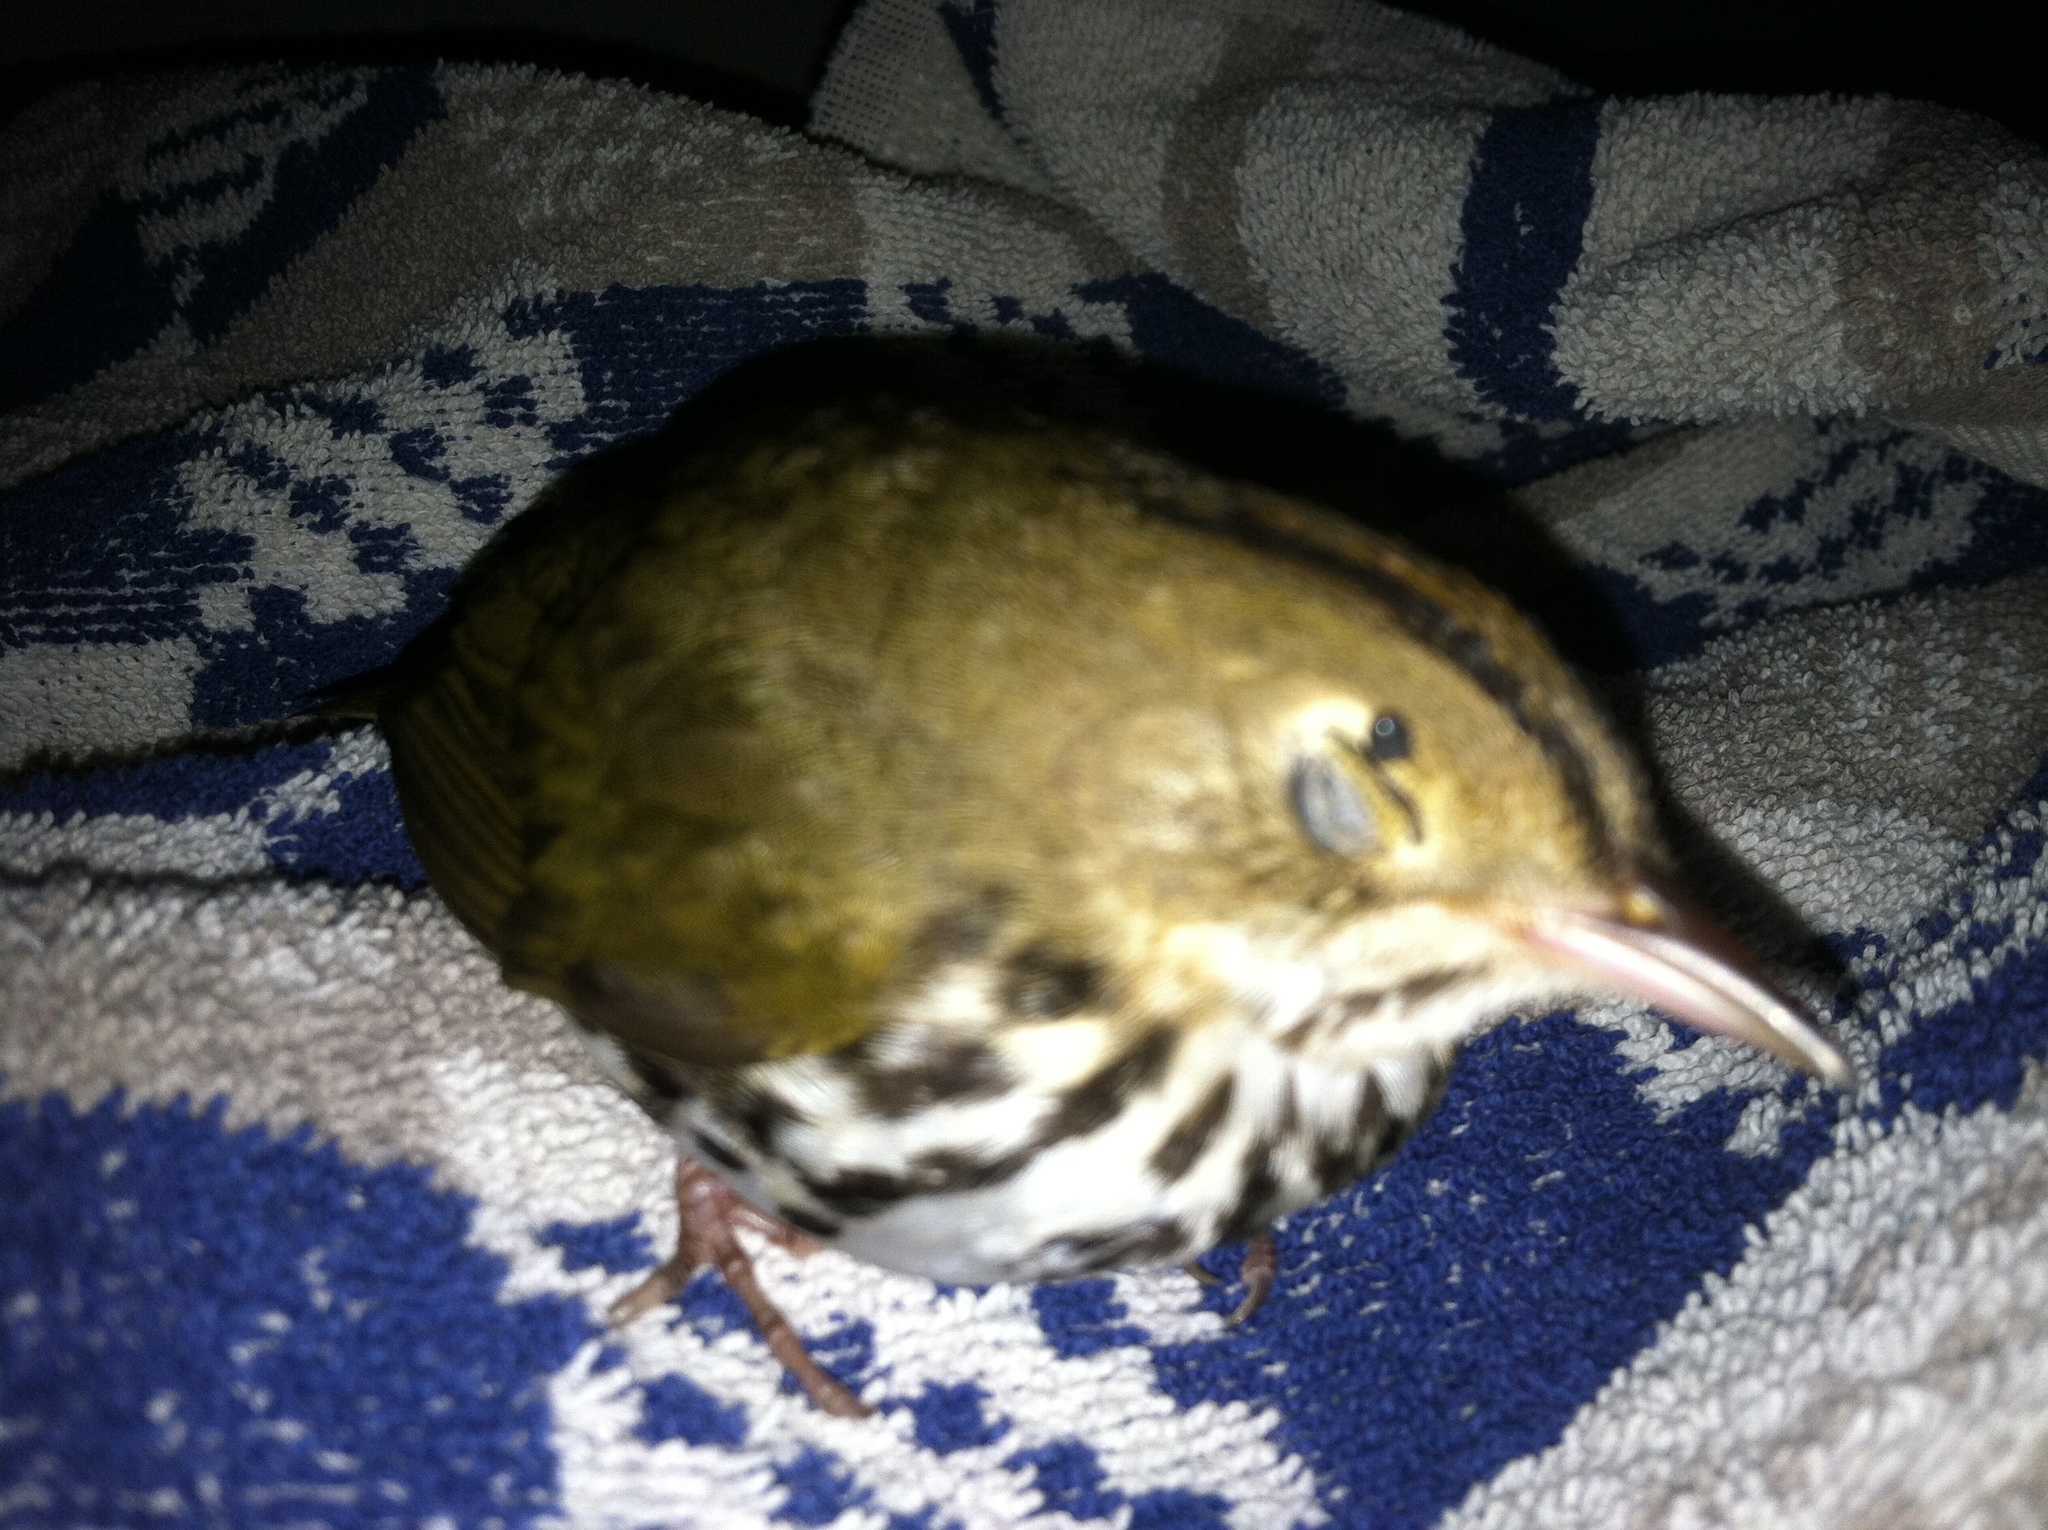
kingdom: Animalia
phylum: Chordata
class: Aves
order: Passeriformes
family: Parulidae
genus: Seiurus
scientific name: Seiurus aurocapilla
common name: Ovenbird
